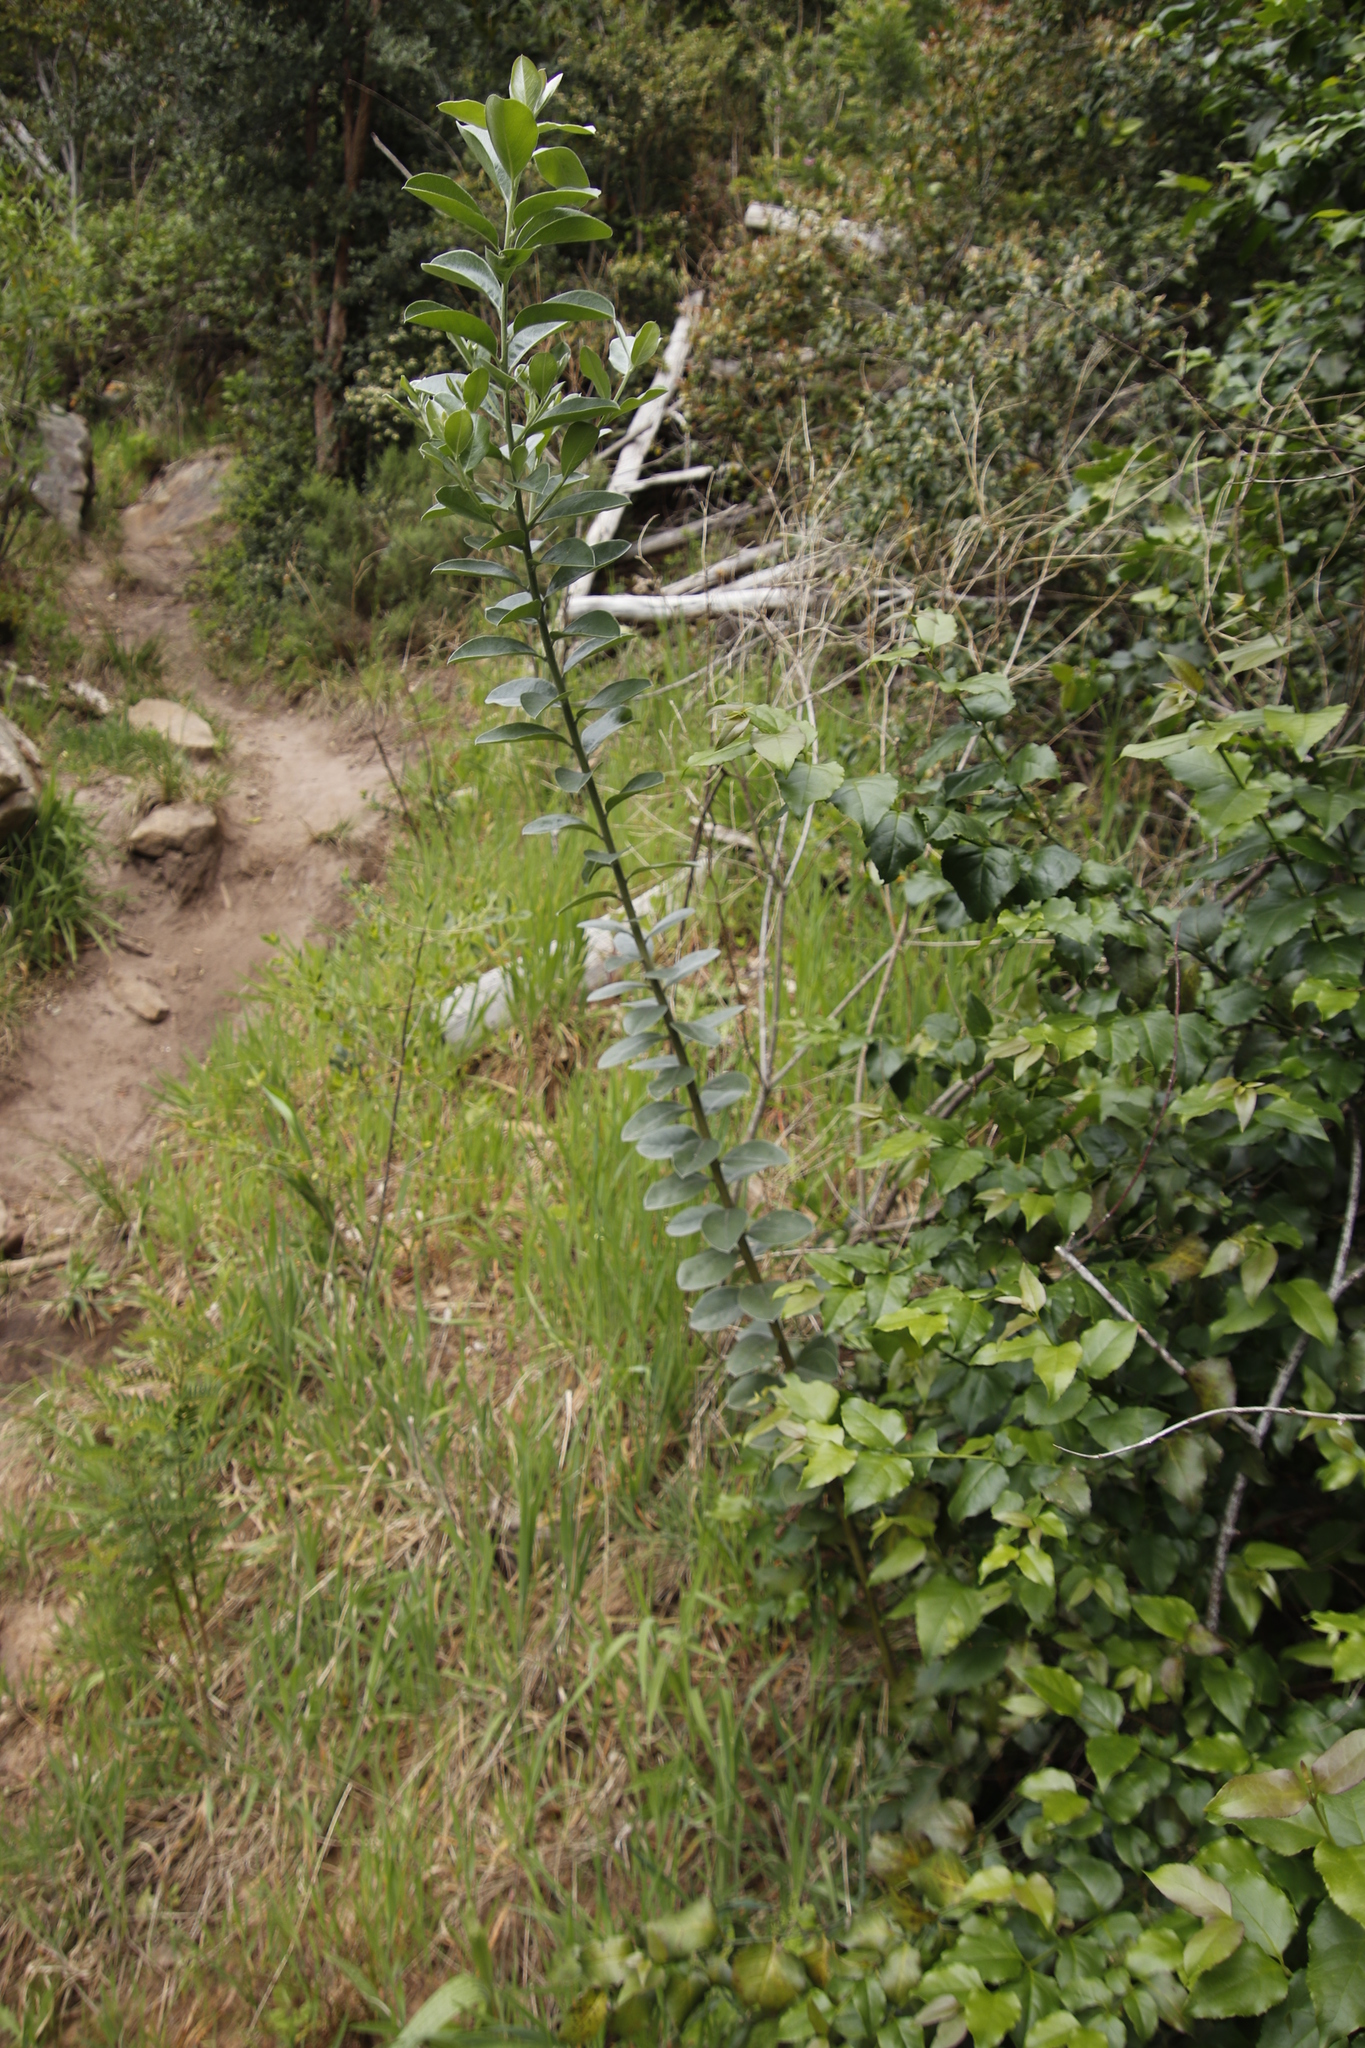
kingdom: Plantae
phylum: Tracheophyta
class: Magnoliopsida
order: Fabales
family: Fabaceae
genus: Podalyria
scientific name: Podalyria calyptrata
